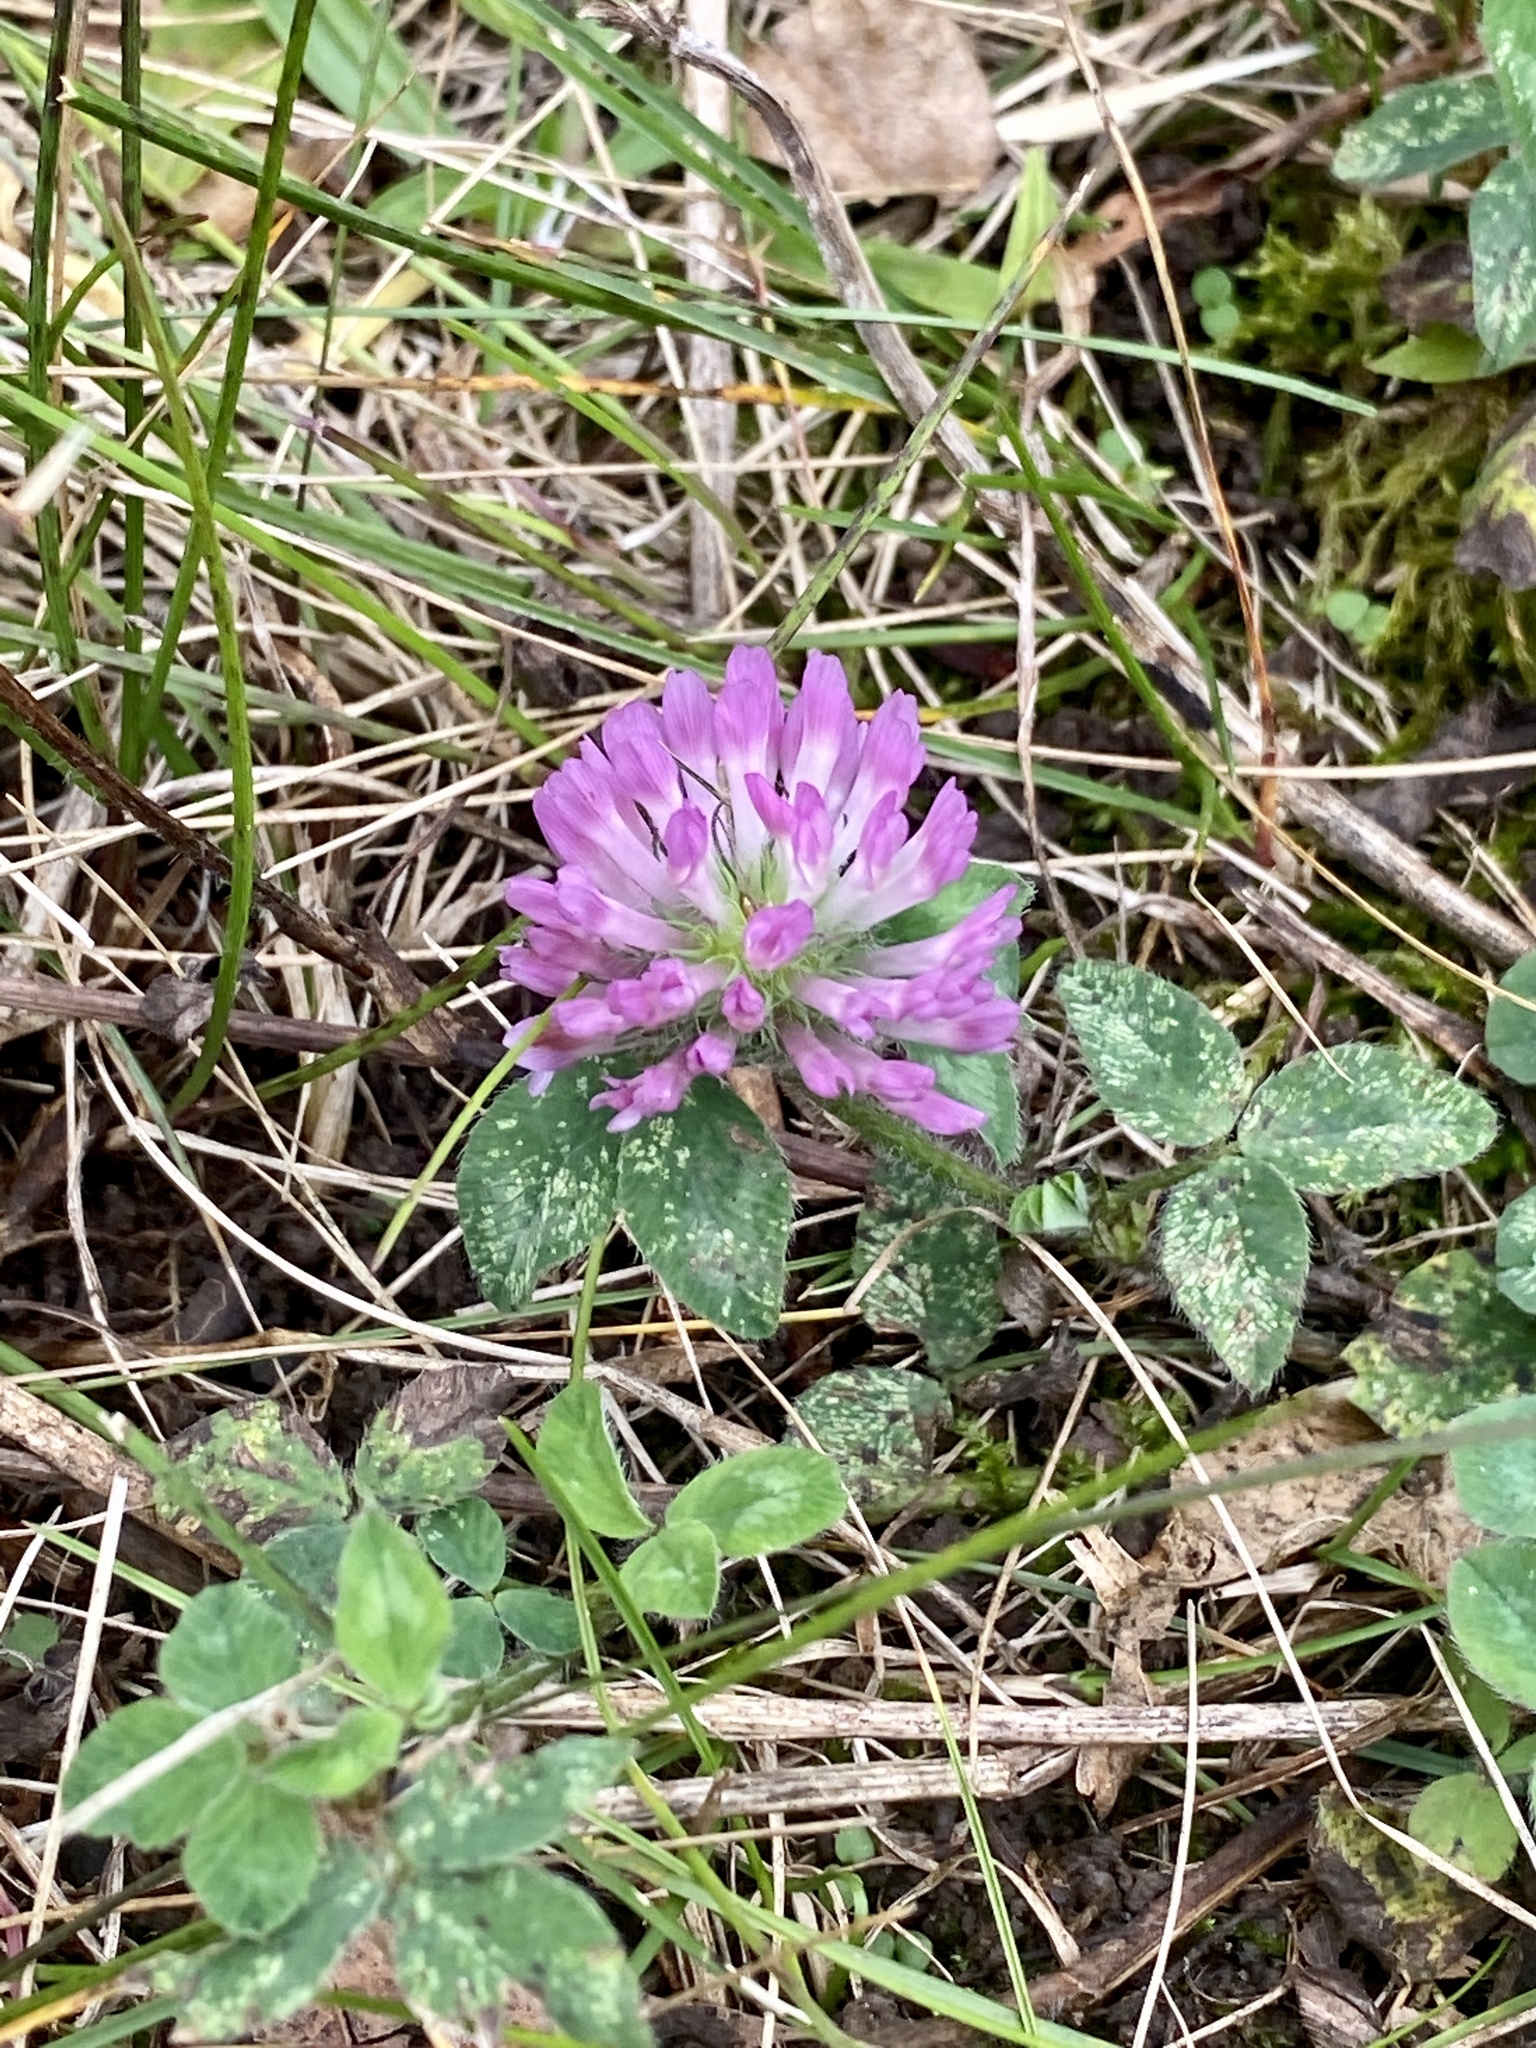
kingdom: Plantae
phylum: Tracheophyta
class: Magnoliopsida
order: Fabales
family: Fabaceae
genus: Trifolium
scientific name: Trifolium pratense
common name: Red clover
